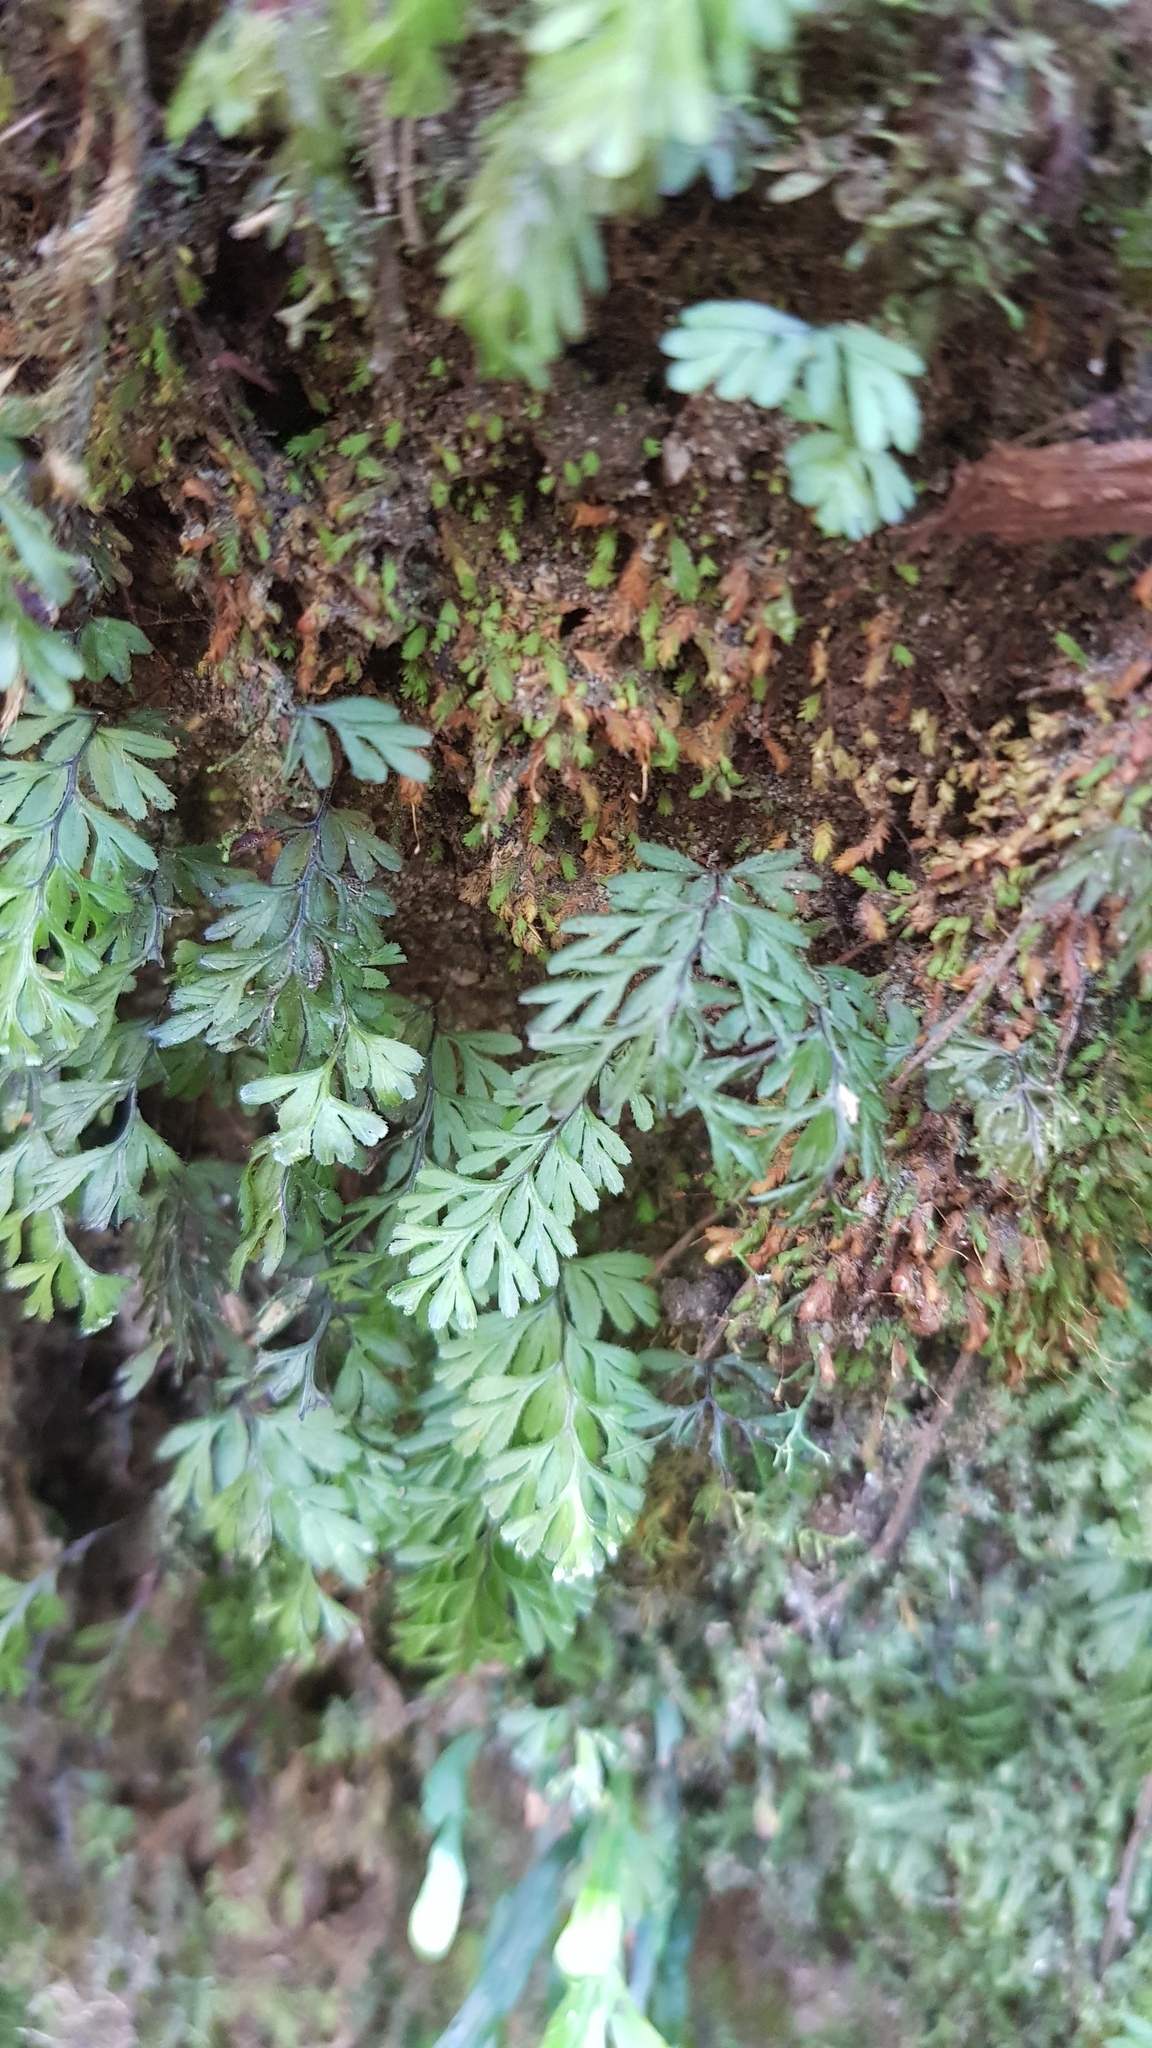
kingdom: Plantae
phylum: Tracheophyta
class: Polypodiopsida
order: Hymenophyllales
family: Hymenophyllaceae
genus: Hymenophyllum
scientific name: Hymenophyllum cupressiforme
